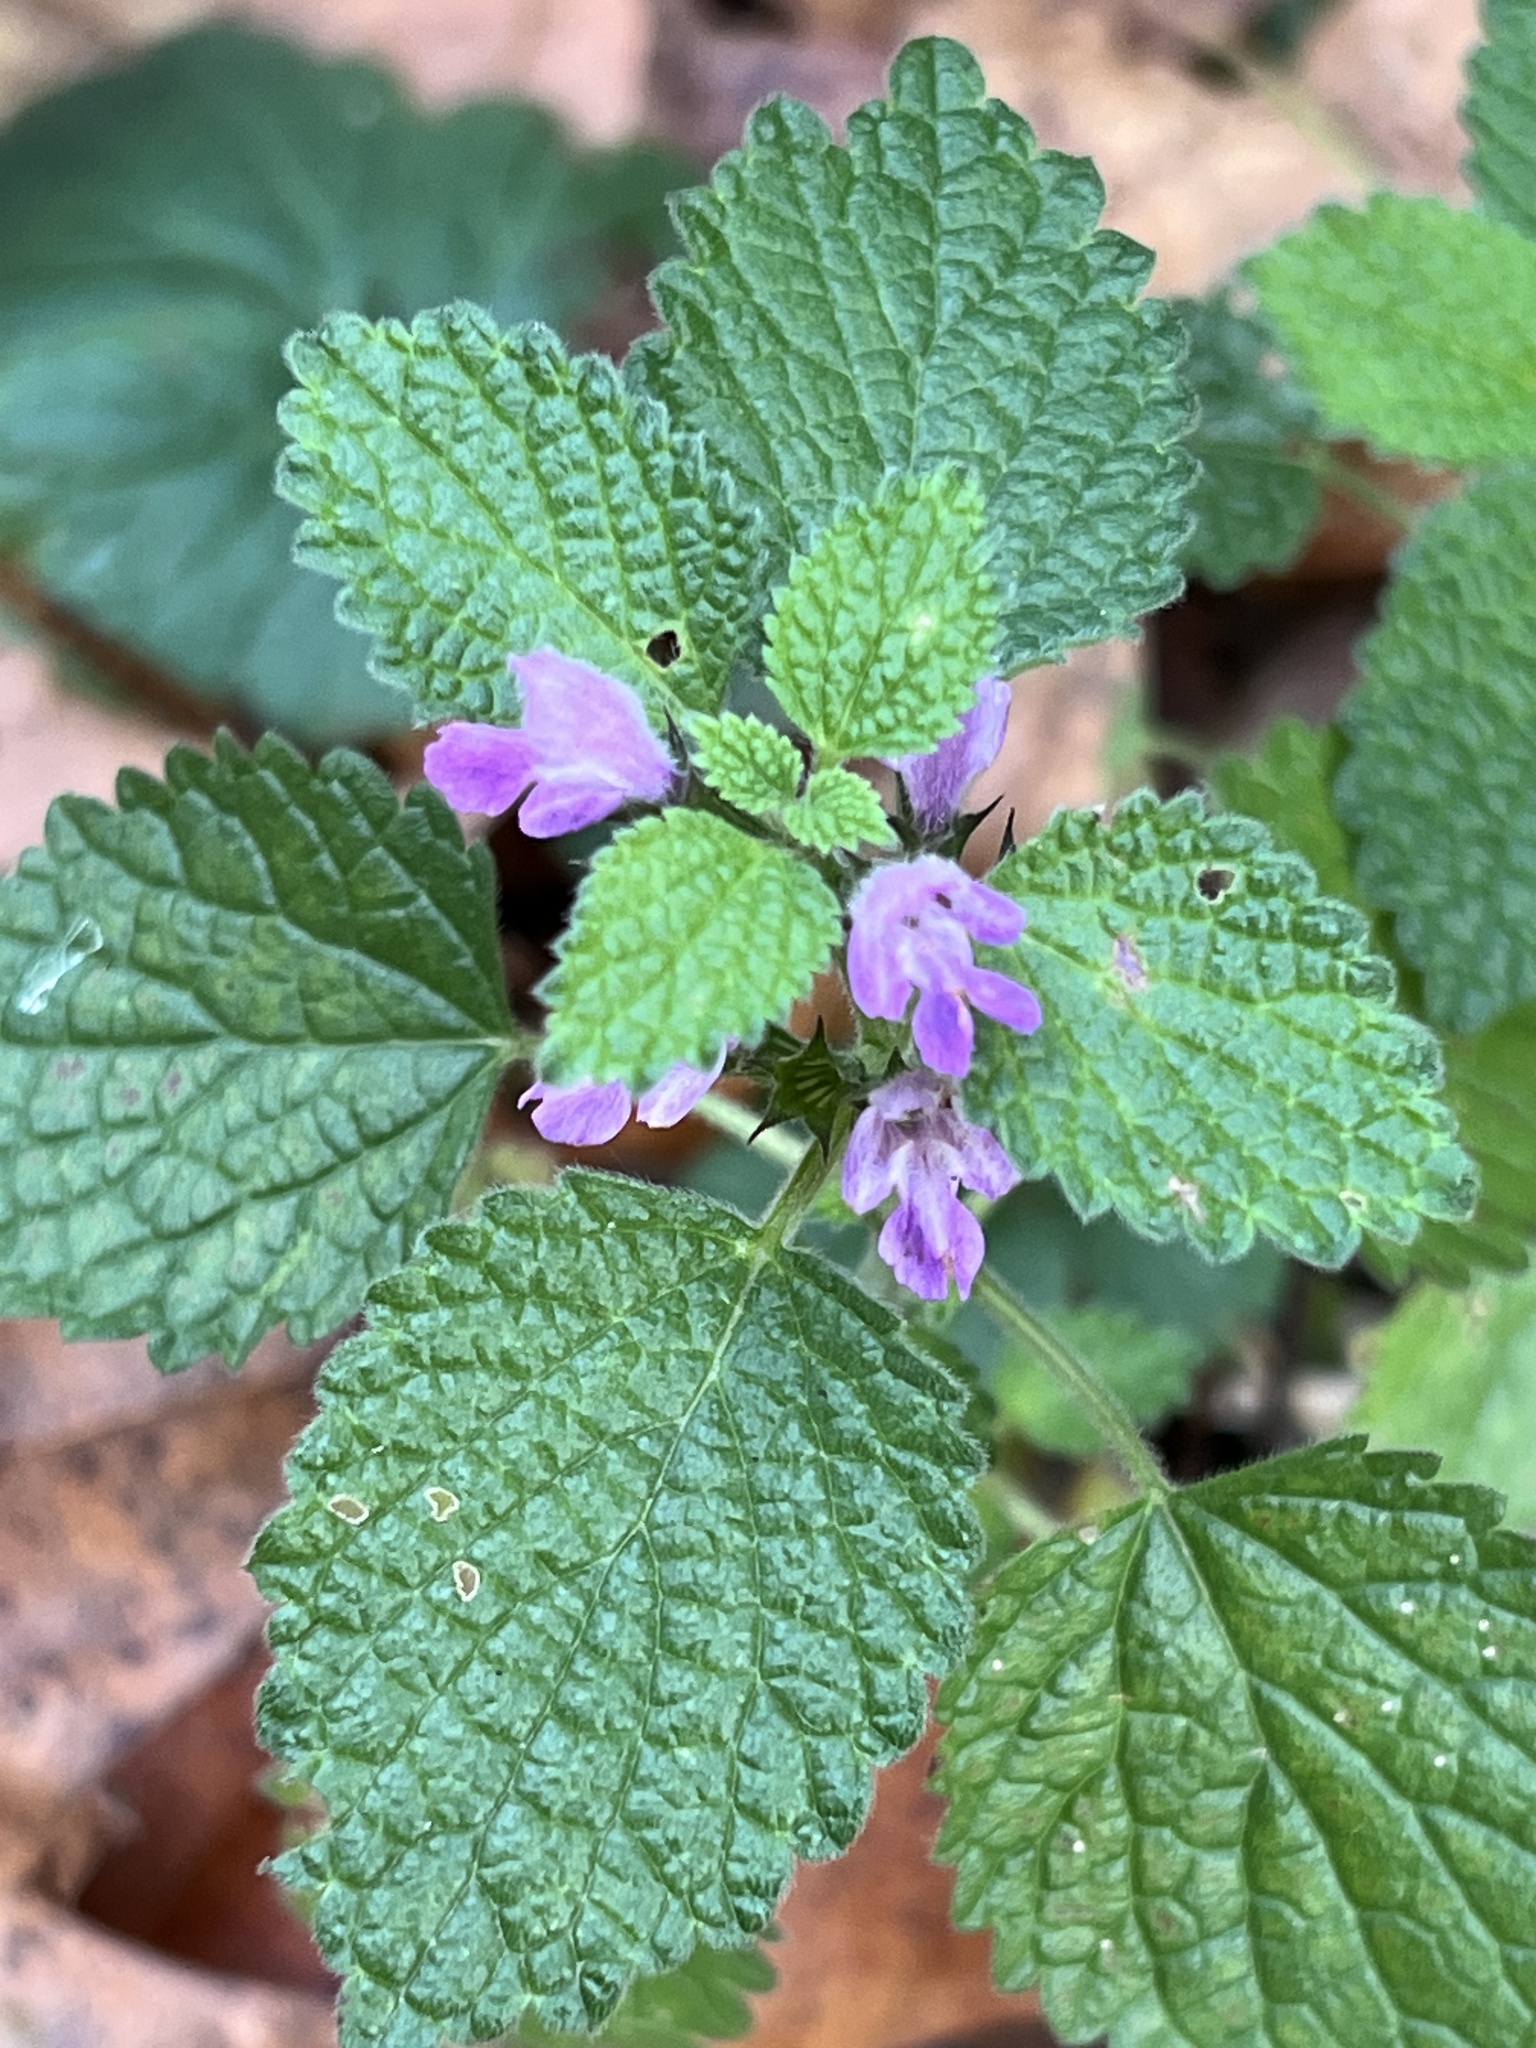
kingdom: Plantae
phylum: Tracheophyta
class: Magnoliopsida
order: Lamiales
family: Lamiaceae
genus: Ballota
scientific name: Ballota nigra
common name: Black horehound
